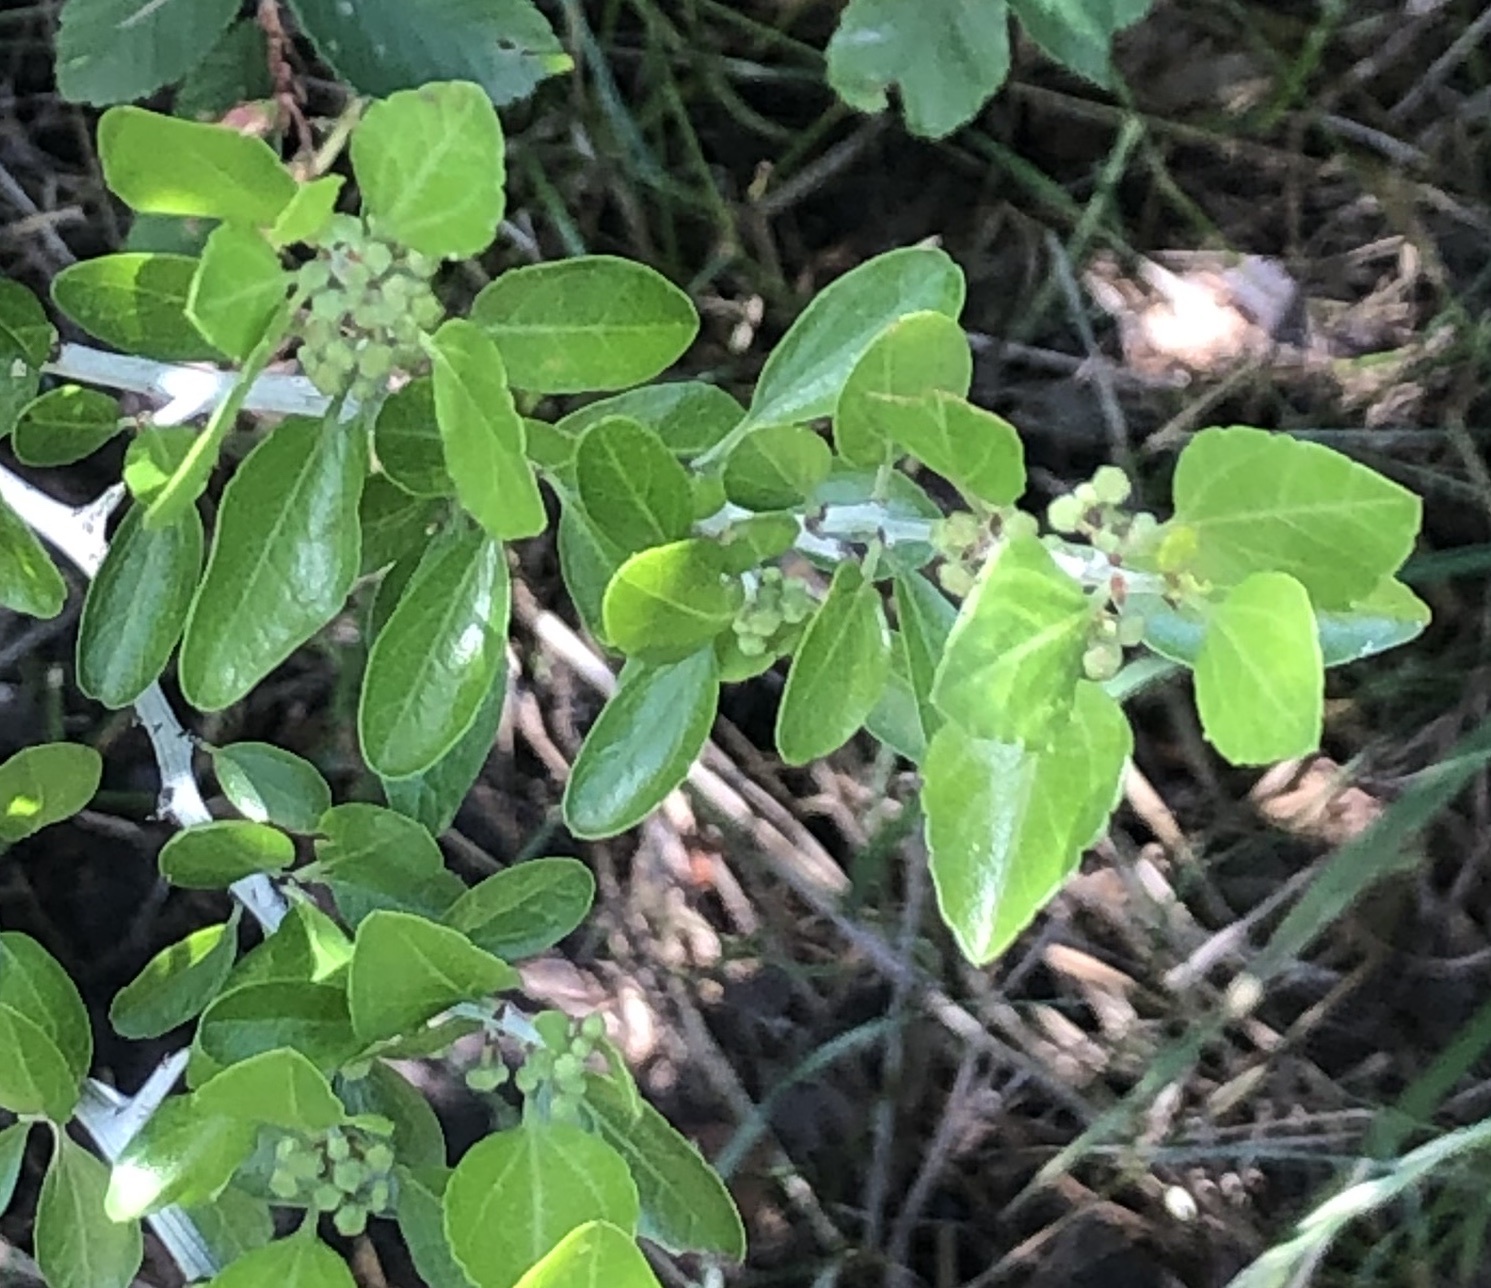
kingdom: Plantae
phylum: Tracheophyta
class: Magnoliopsida
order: Rosales
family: Rhamnaceae
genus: Sarcomphalus
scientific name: Sarcomphalus obtusifolius
